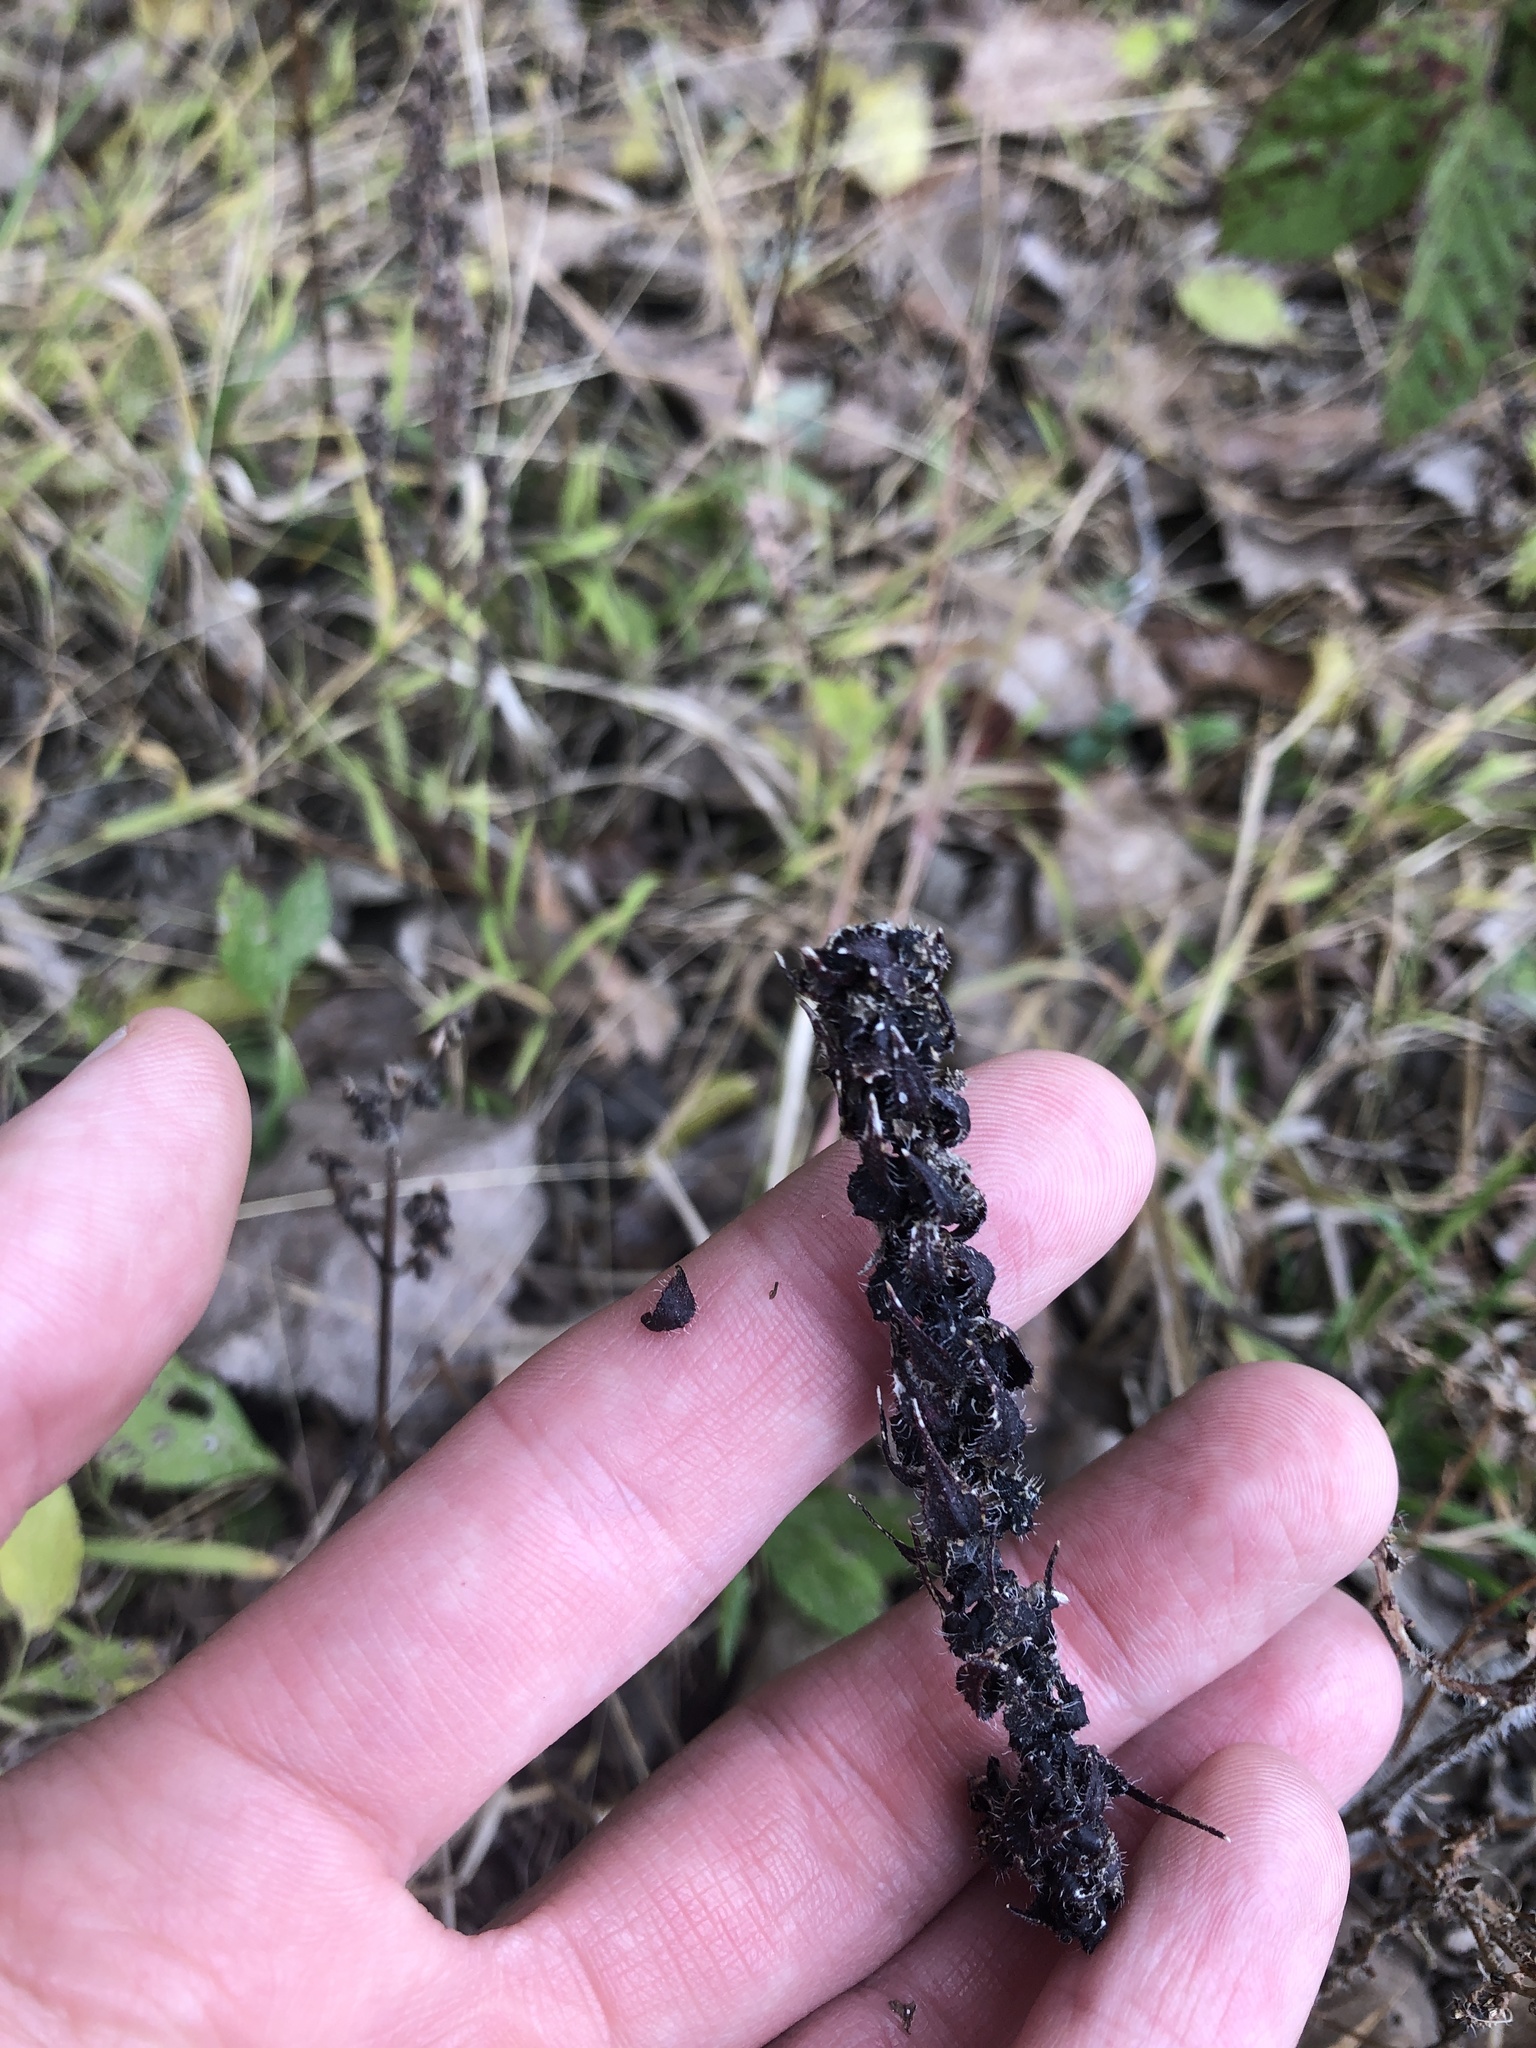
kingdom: Plantae
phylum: Tracheophyta
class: Magnoliopsida
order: Asterales
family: Asteraceae
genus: Iva
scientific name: Iva annua
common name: Marsh-elder
